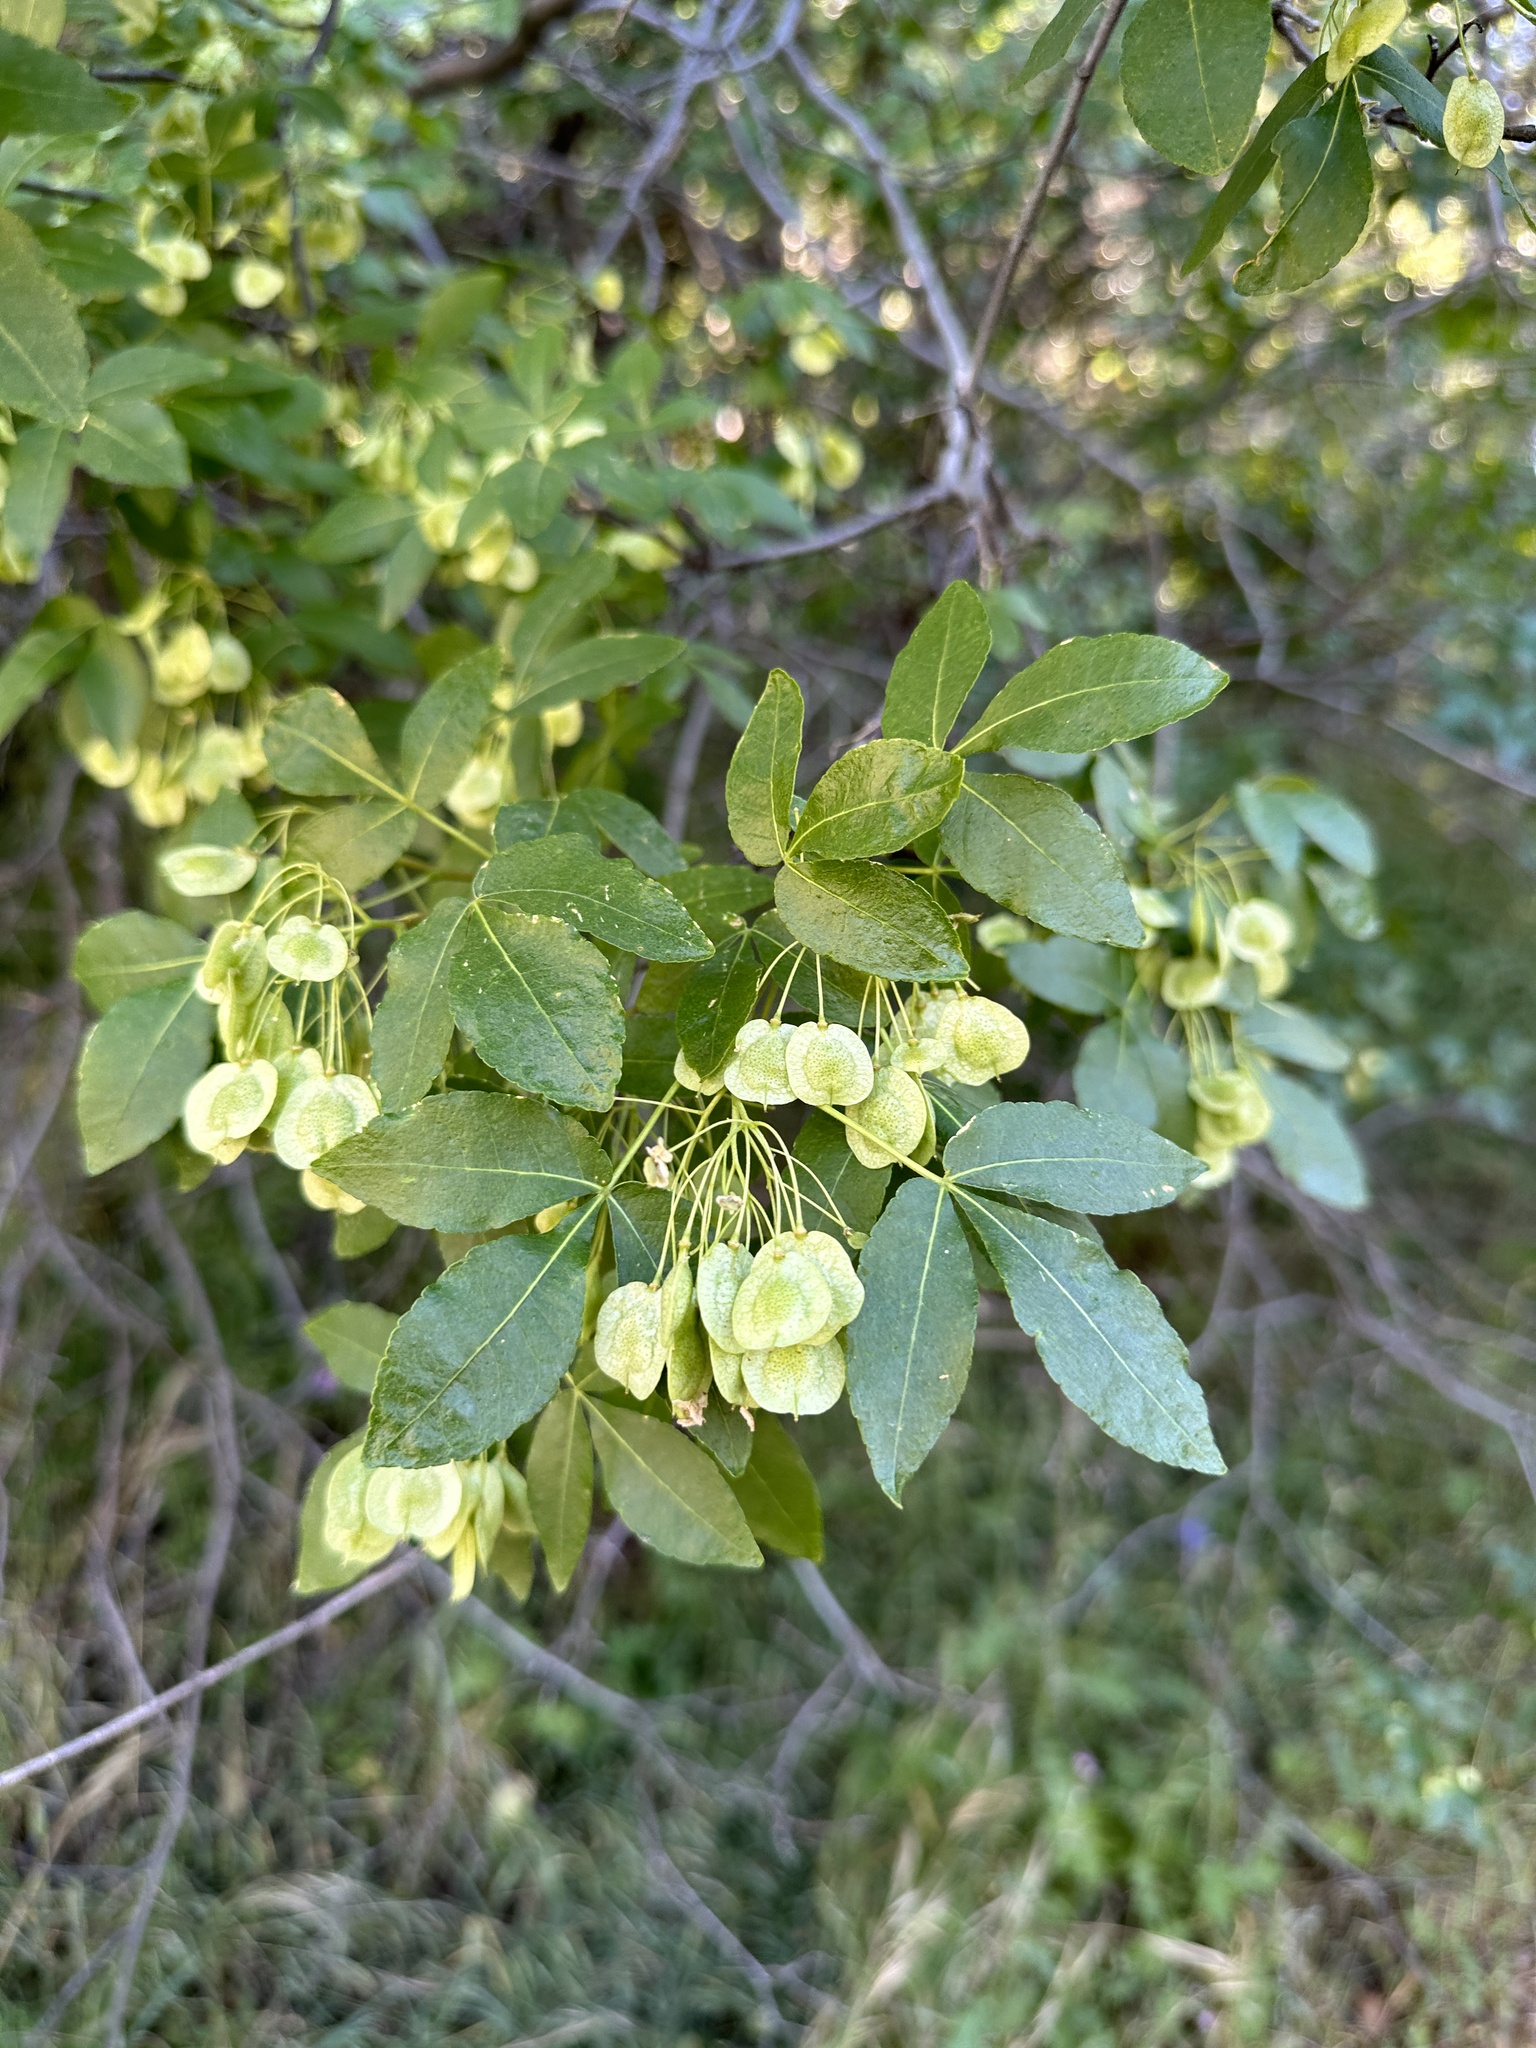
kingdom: Plantae
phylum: Tracheophyta
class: Magnoliopsida
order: Sapindales
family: Rutaceae
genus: Ptelea
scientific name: Ptelea crenulata
